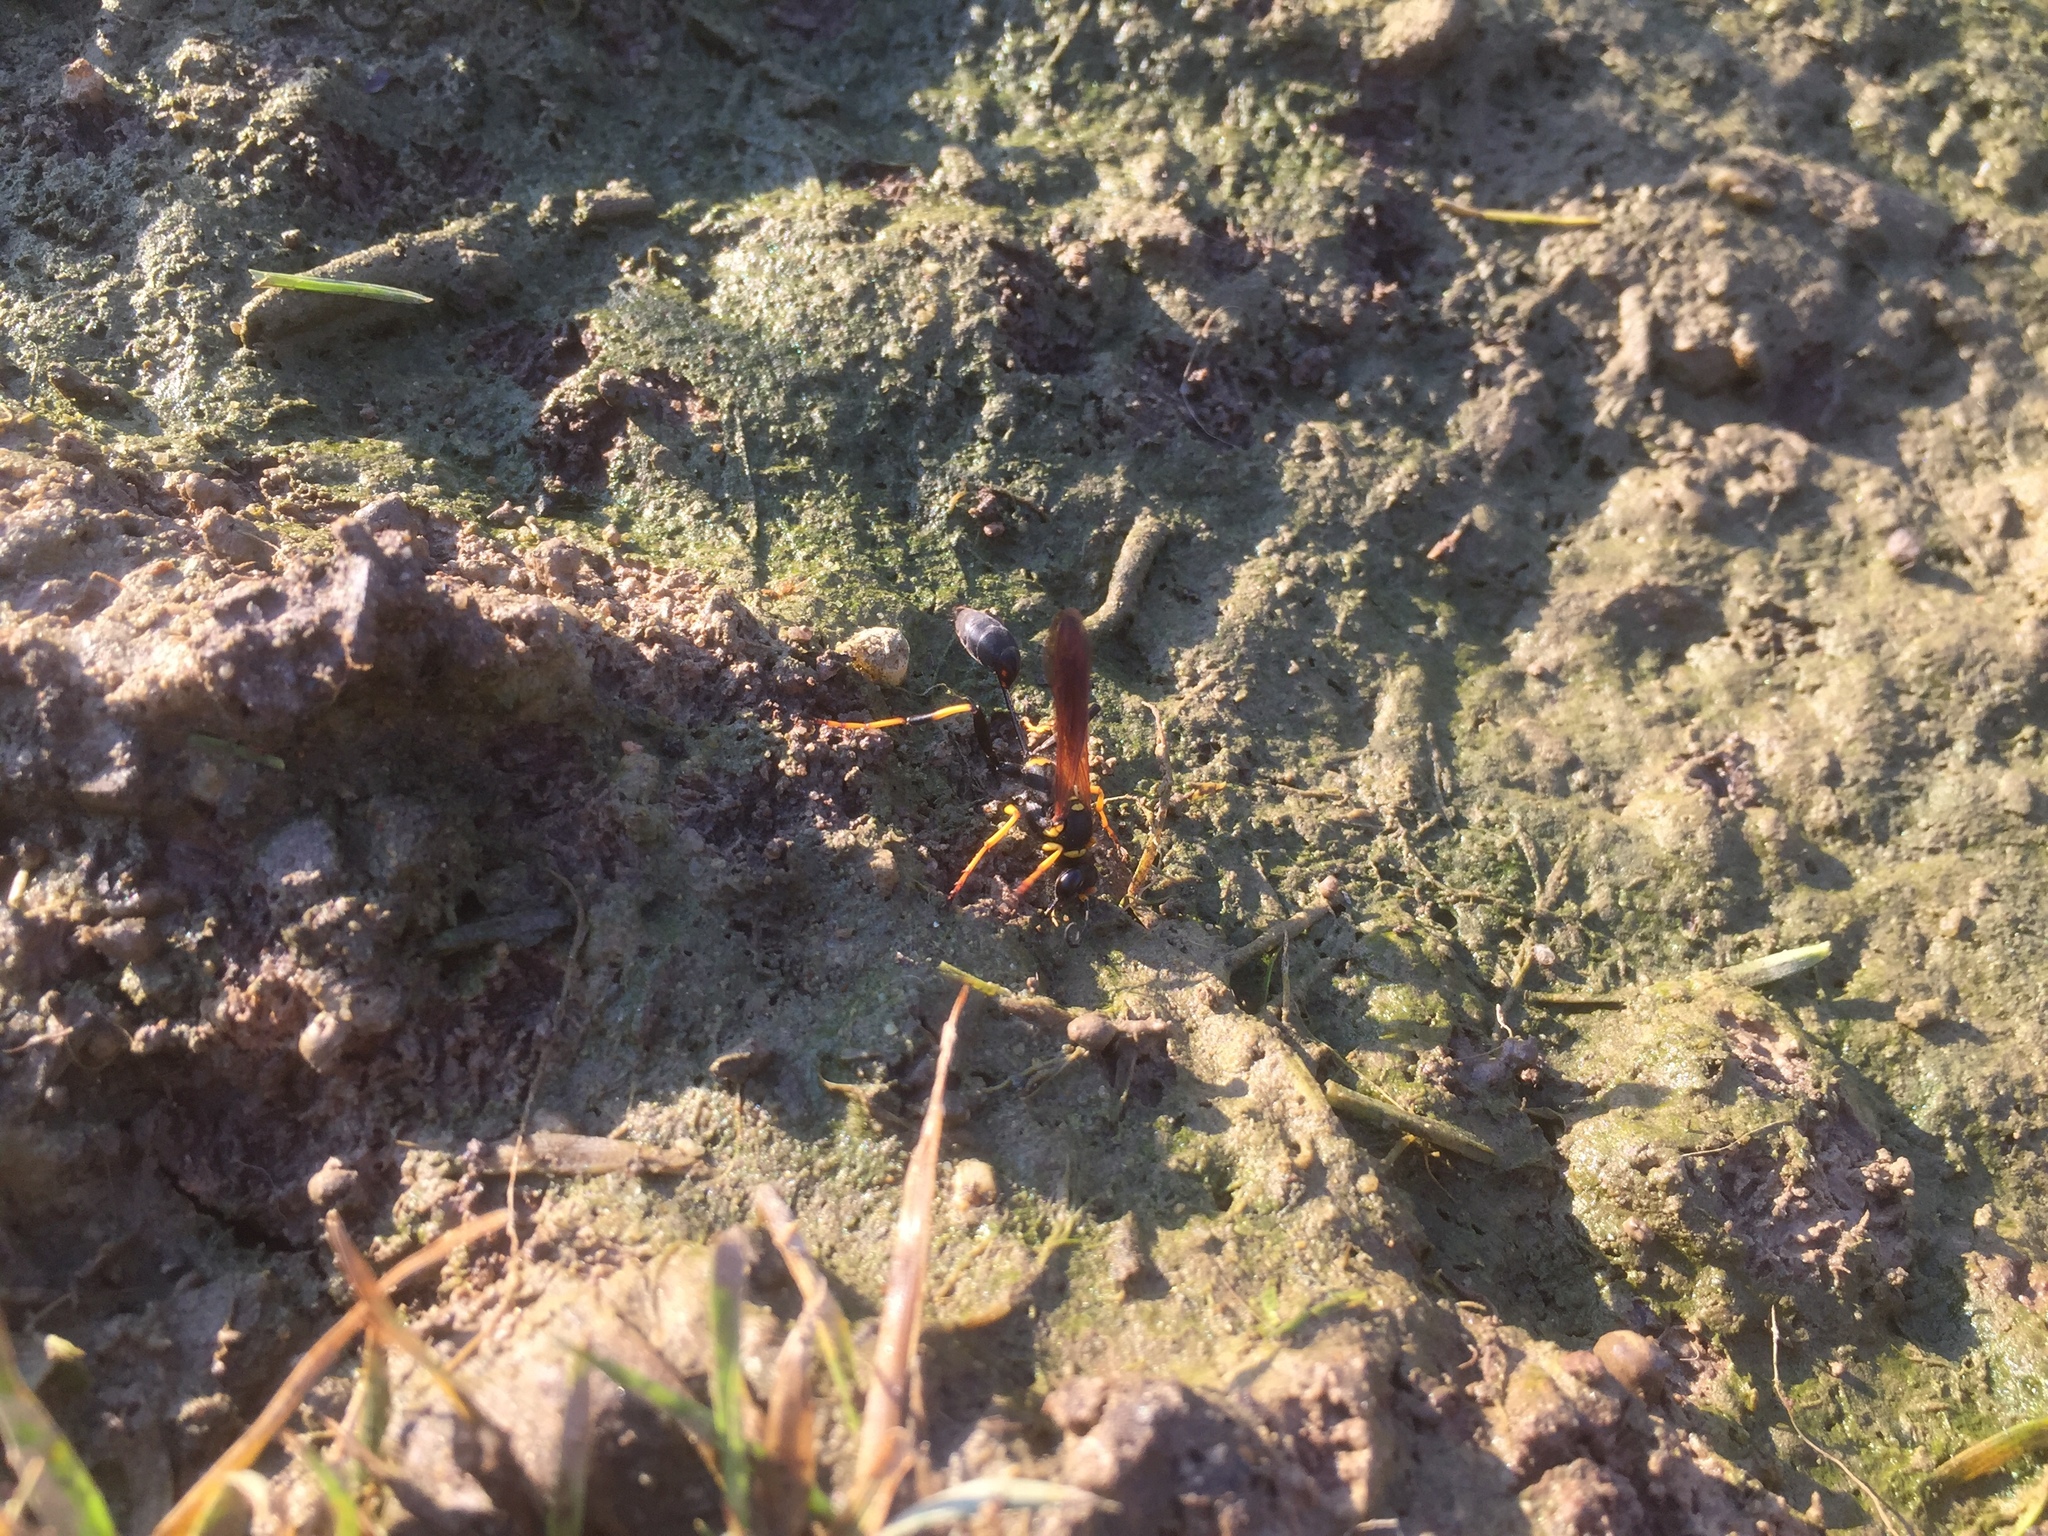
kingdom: Animalia
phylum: Arthropoda
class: Insecta
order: Hymenoptera
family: Sphecidae
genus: Sceliphron
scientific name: Sceliphron caementarium
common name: Mud dauber
